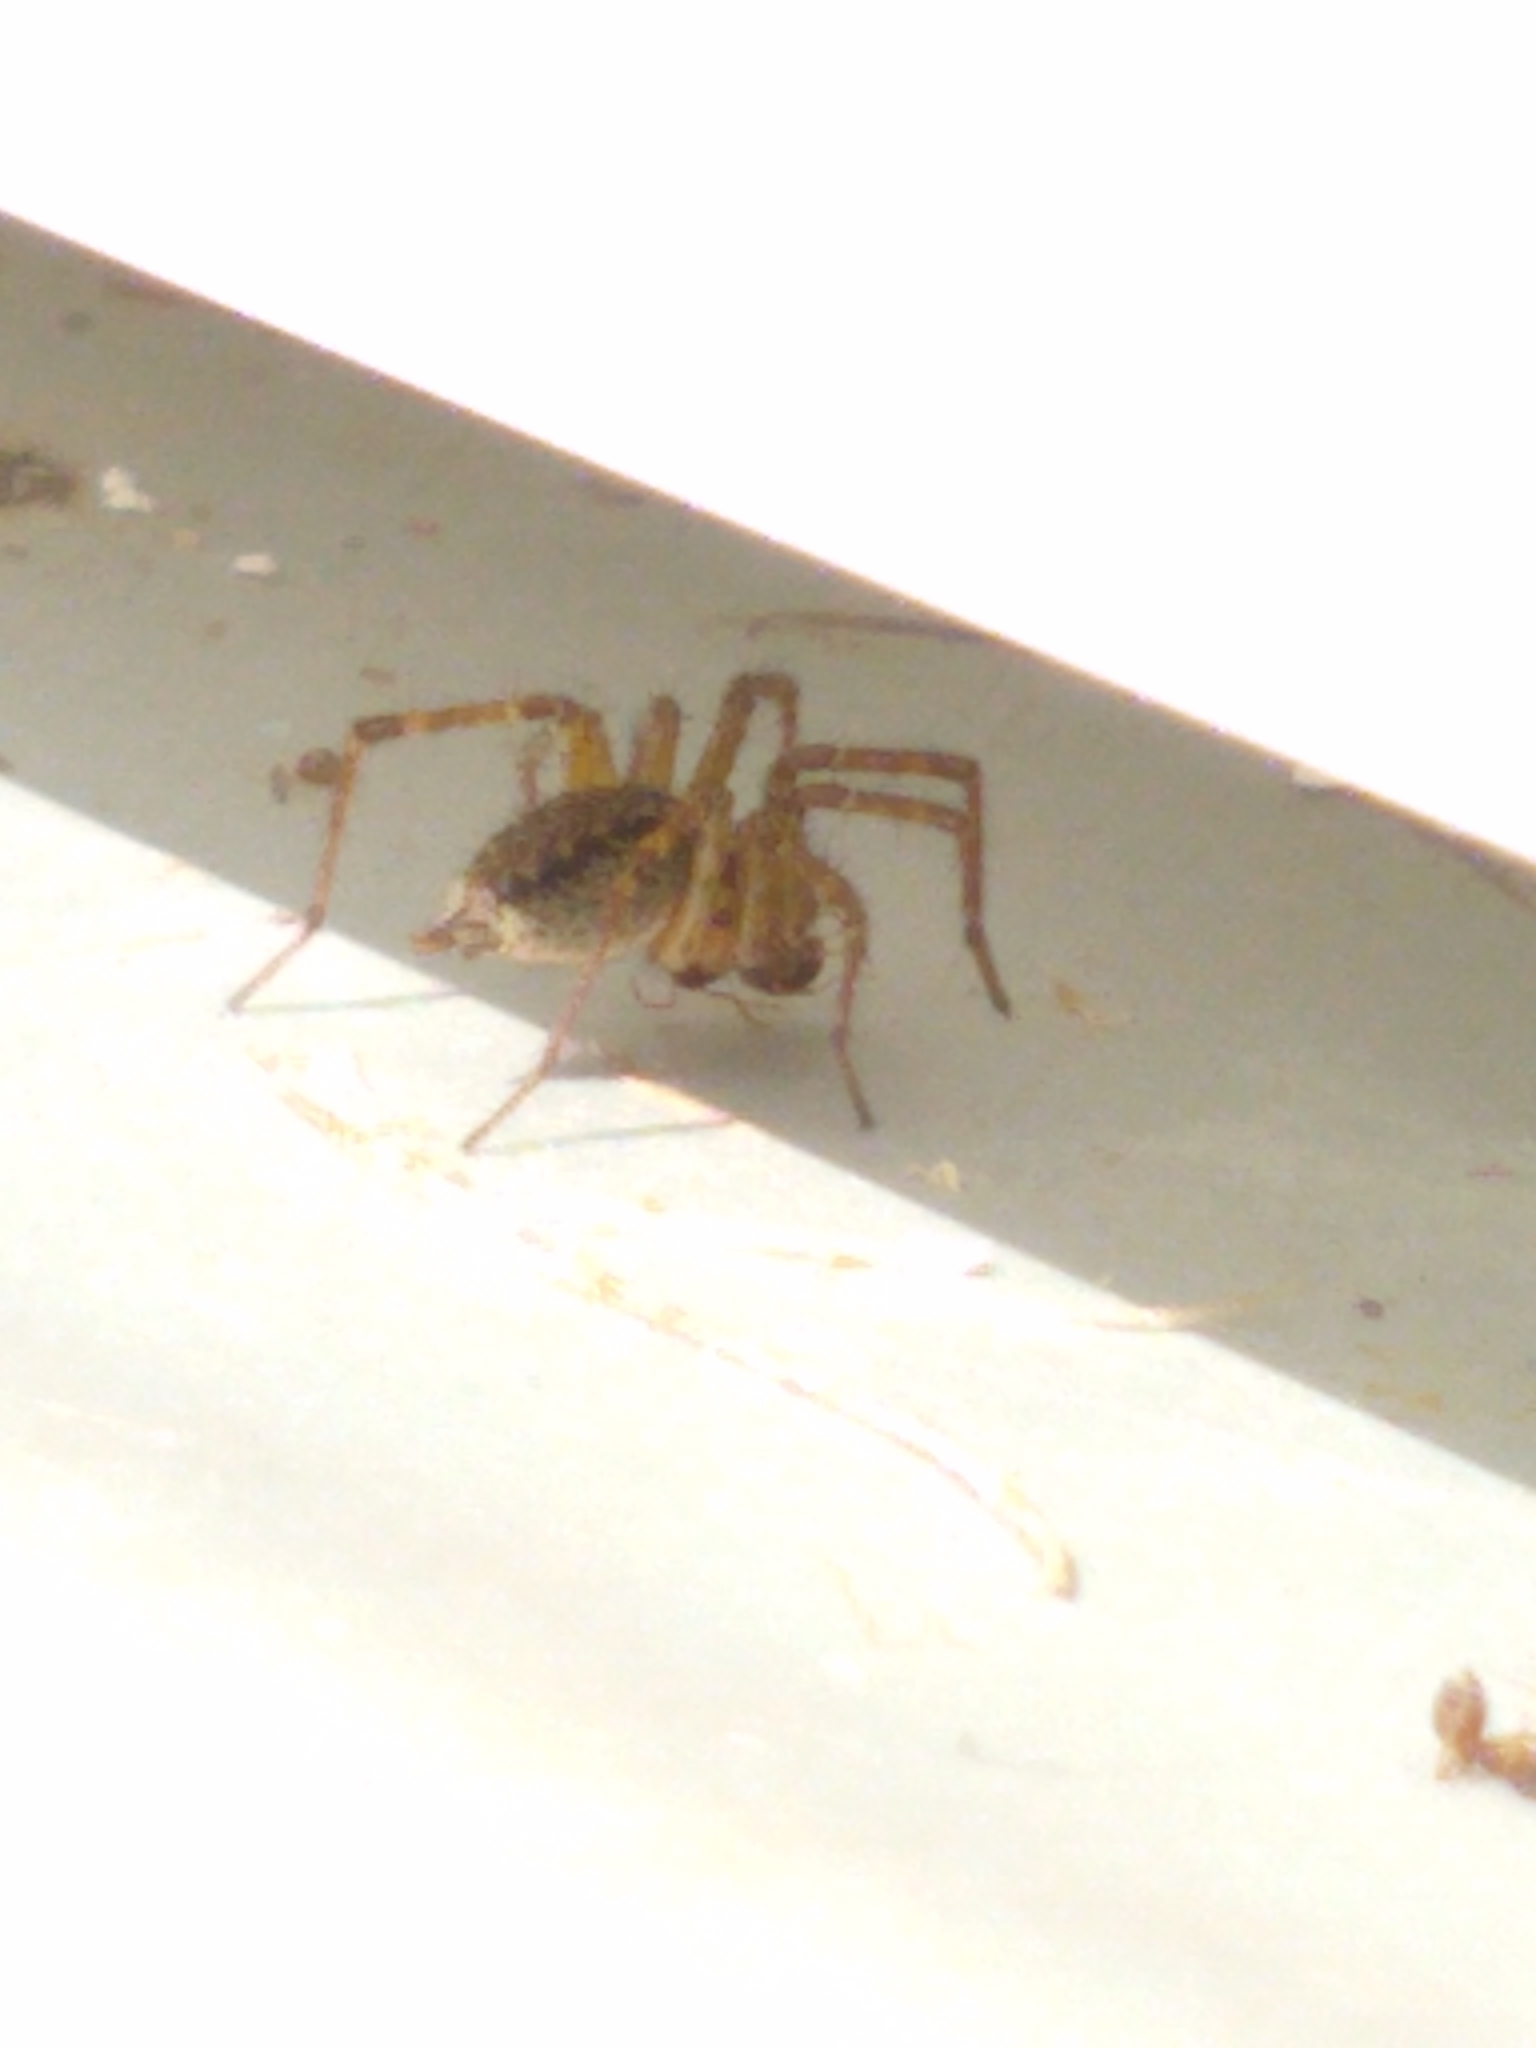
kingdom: Animalia
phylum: Arthropoda
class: Arachnida
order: Araneae
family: Agelenidae
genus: Agelenopsis
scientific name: Agelenopsis
